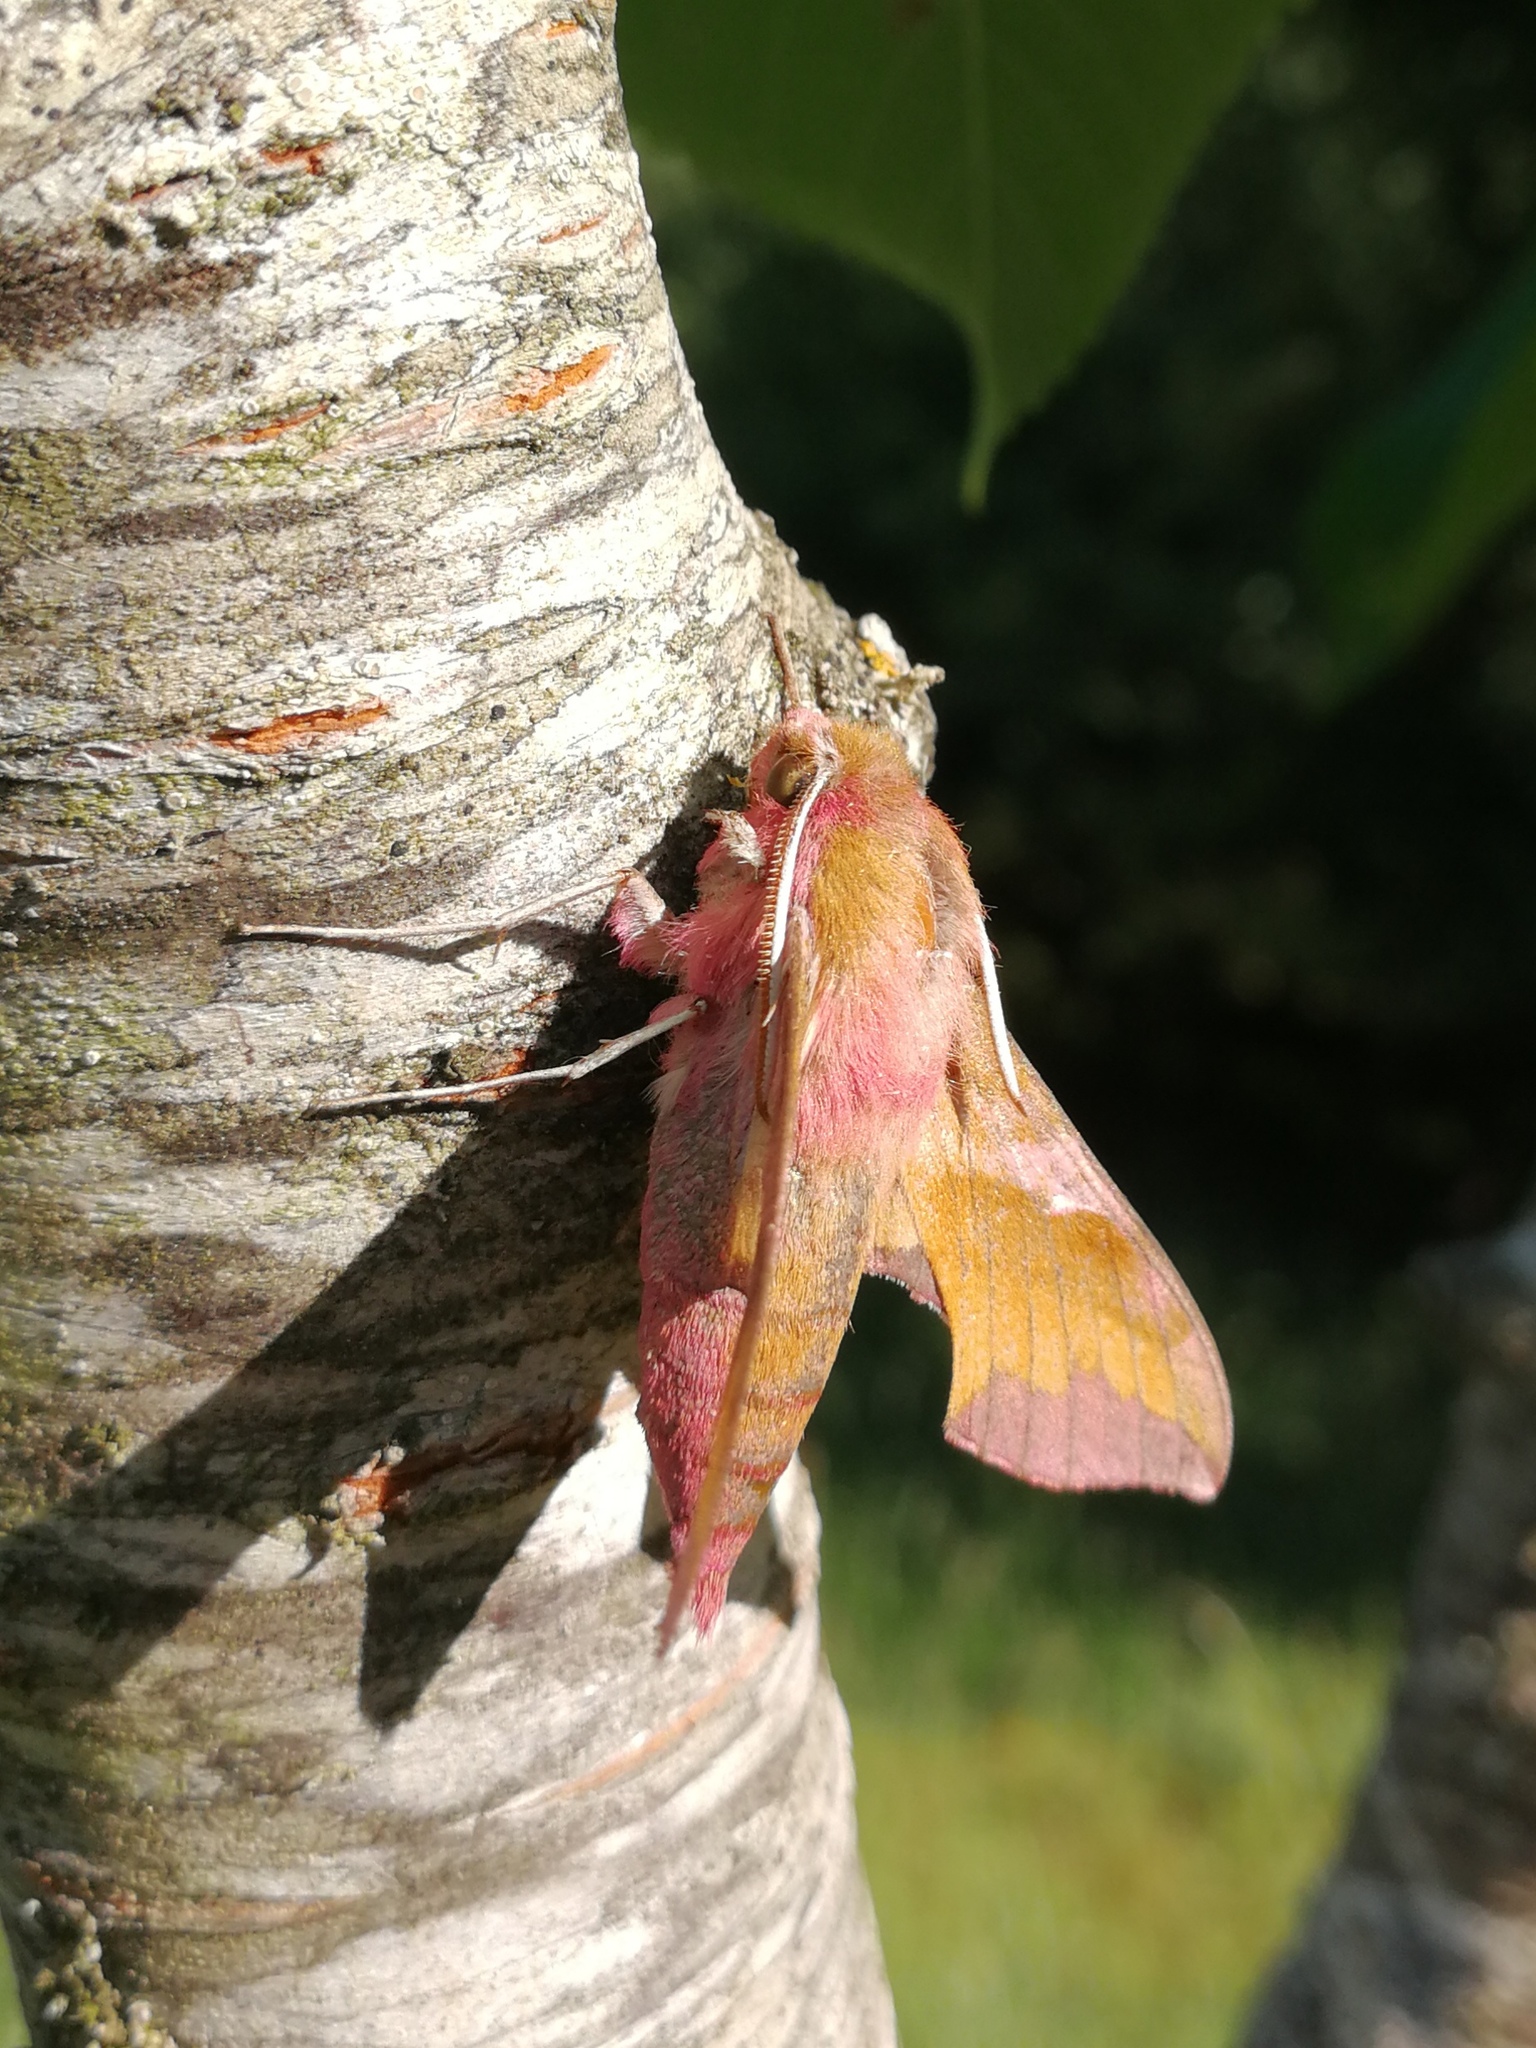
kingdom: Animalia
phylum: Arthropoda
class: Insecta
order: Lepidoptera
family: Sphingidae
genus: Deilephila
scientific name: Deilephila porcellus
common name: Small elephant hawk-moth
